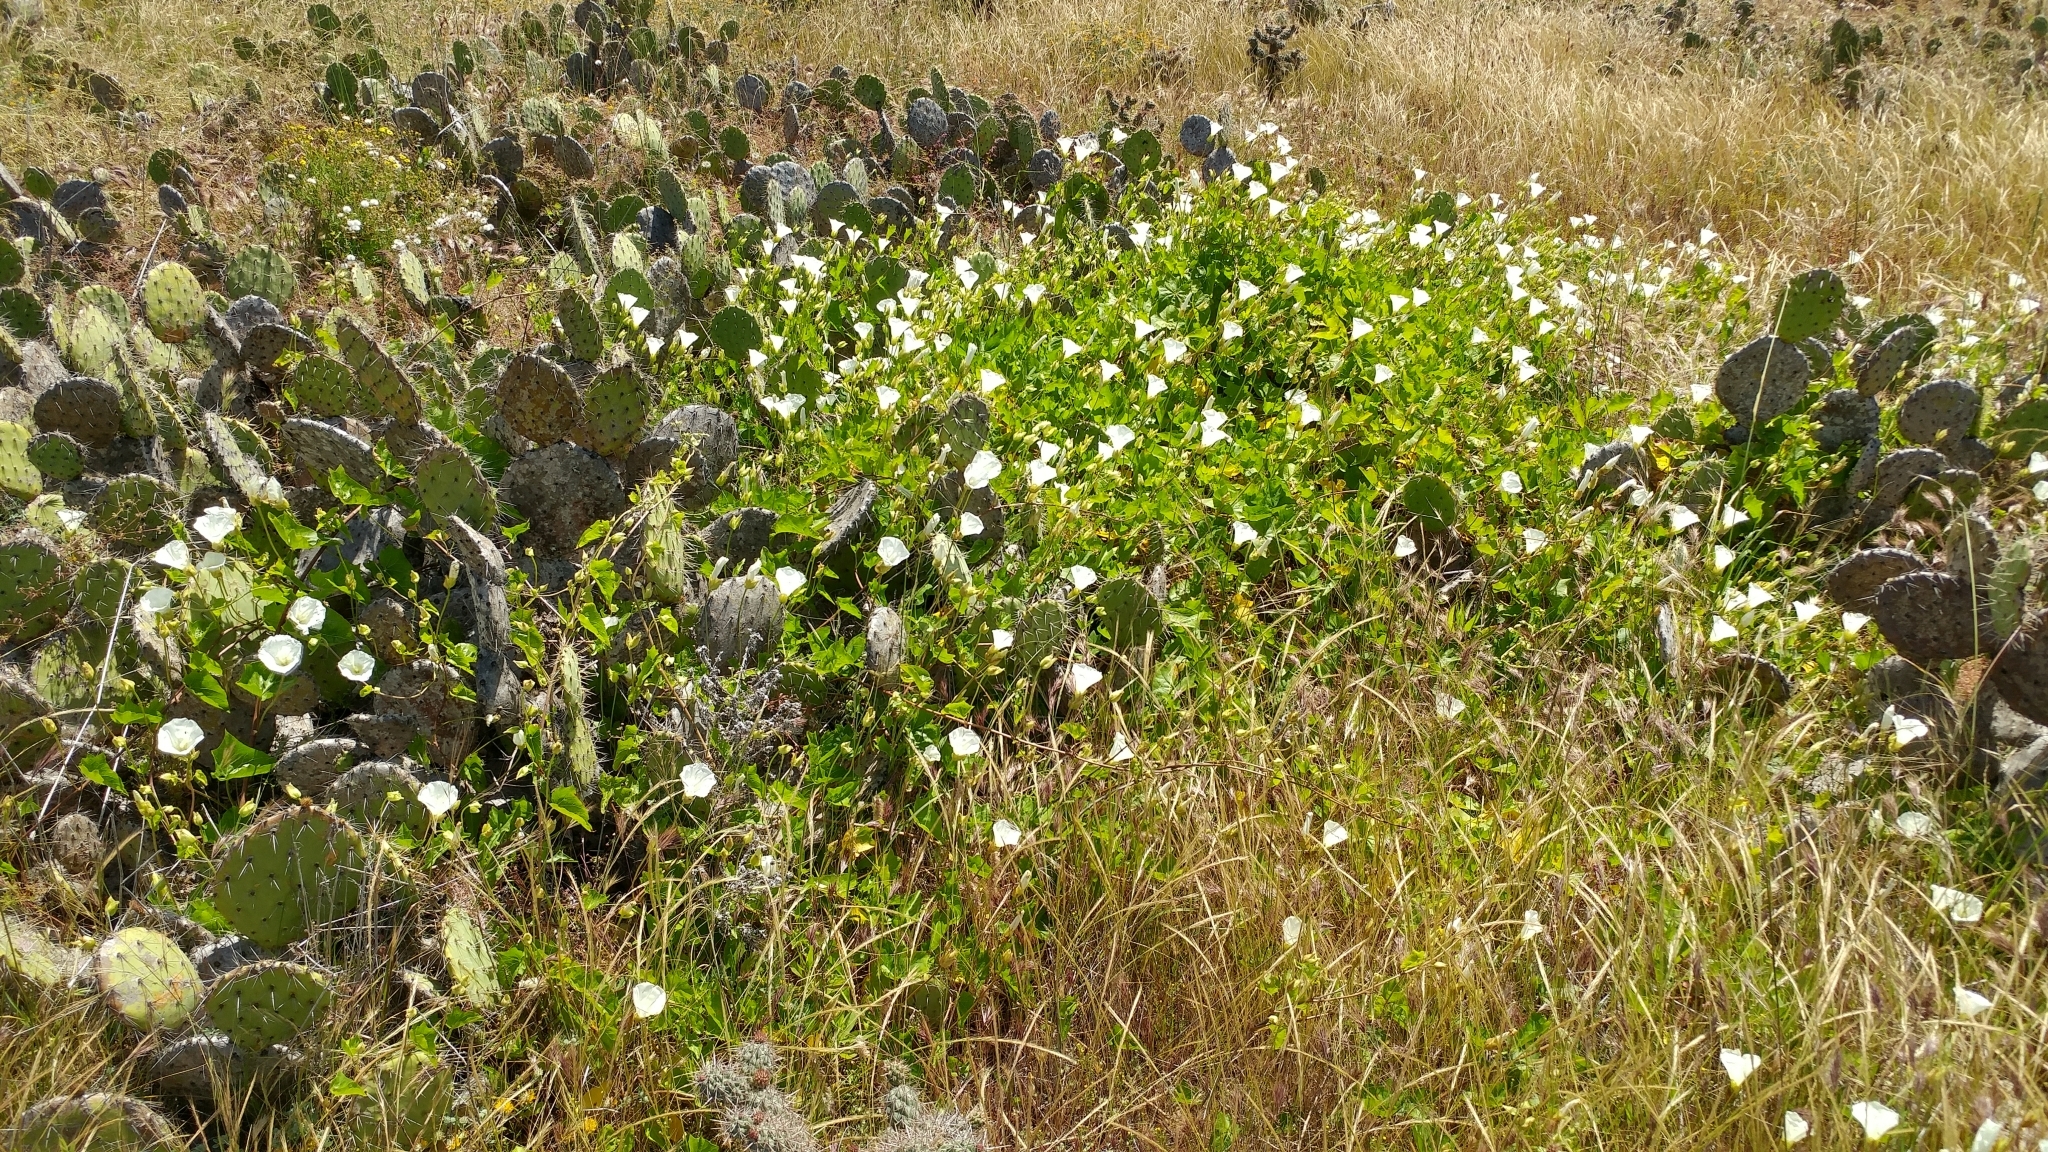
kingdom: Plantae
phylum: Tracheophyta
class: Magnoliopsida
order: Solanales
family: Convolvulaceae
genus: Calystegia
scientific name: Calystegia macrostegia
